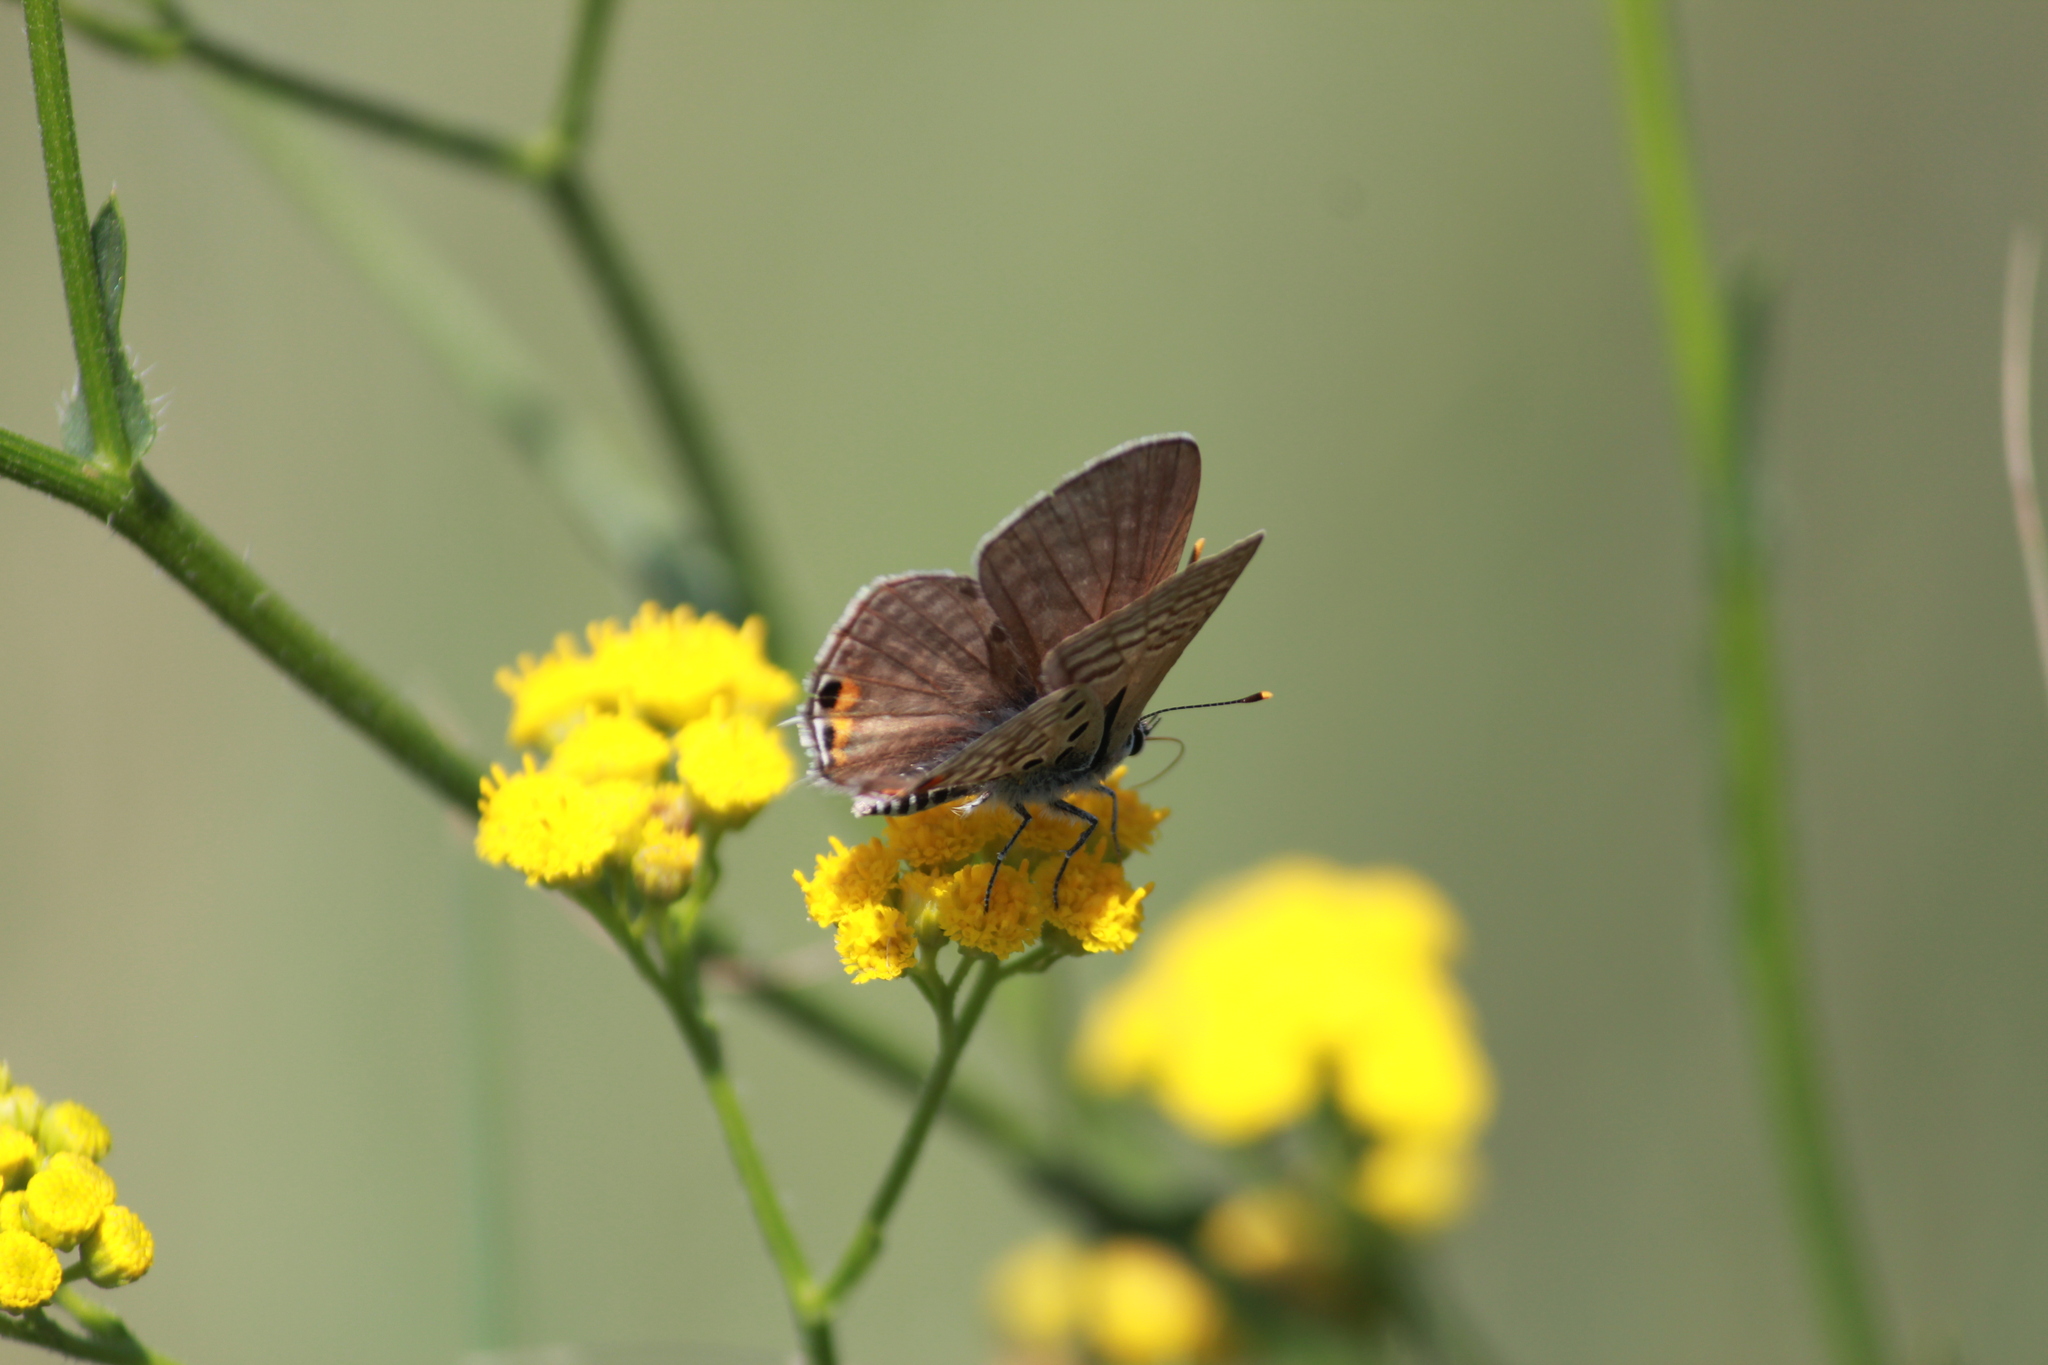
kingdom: Animalia
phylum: Arthropoda
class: Insecta
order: Lepidoptera
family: Lycaenidae
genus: Anthene
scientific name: Anthene amarah
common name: Black-striped hairtail
